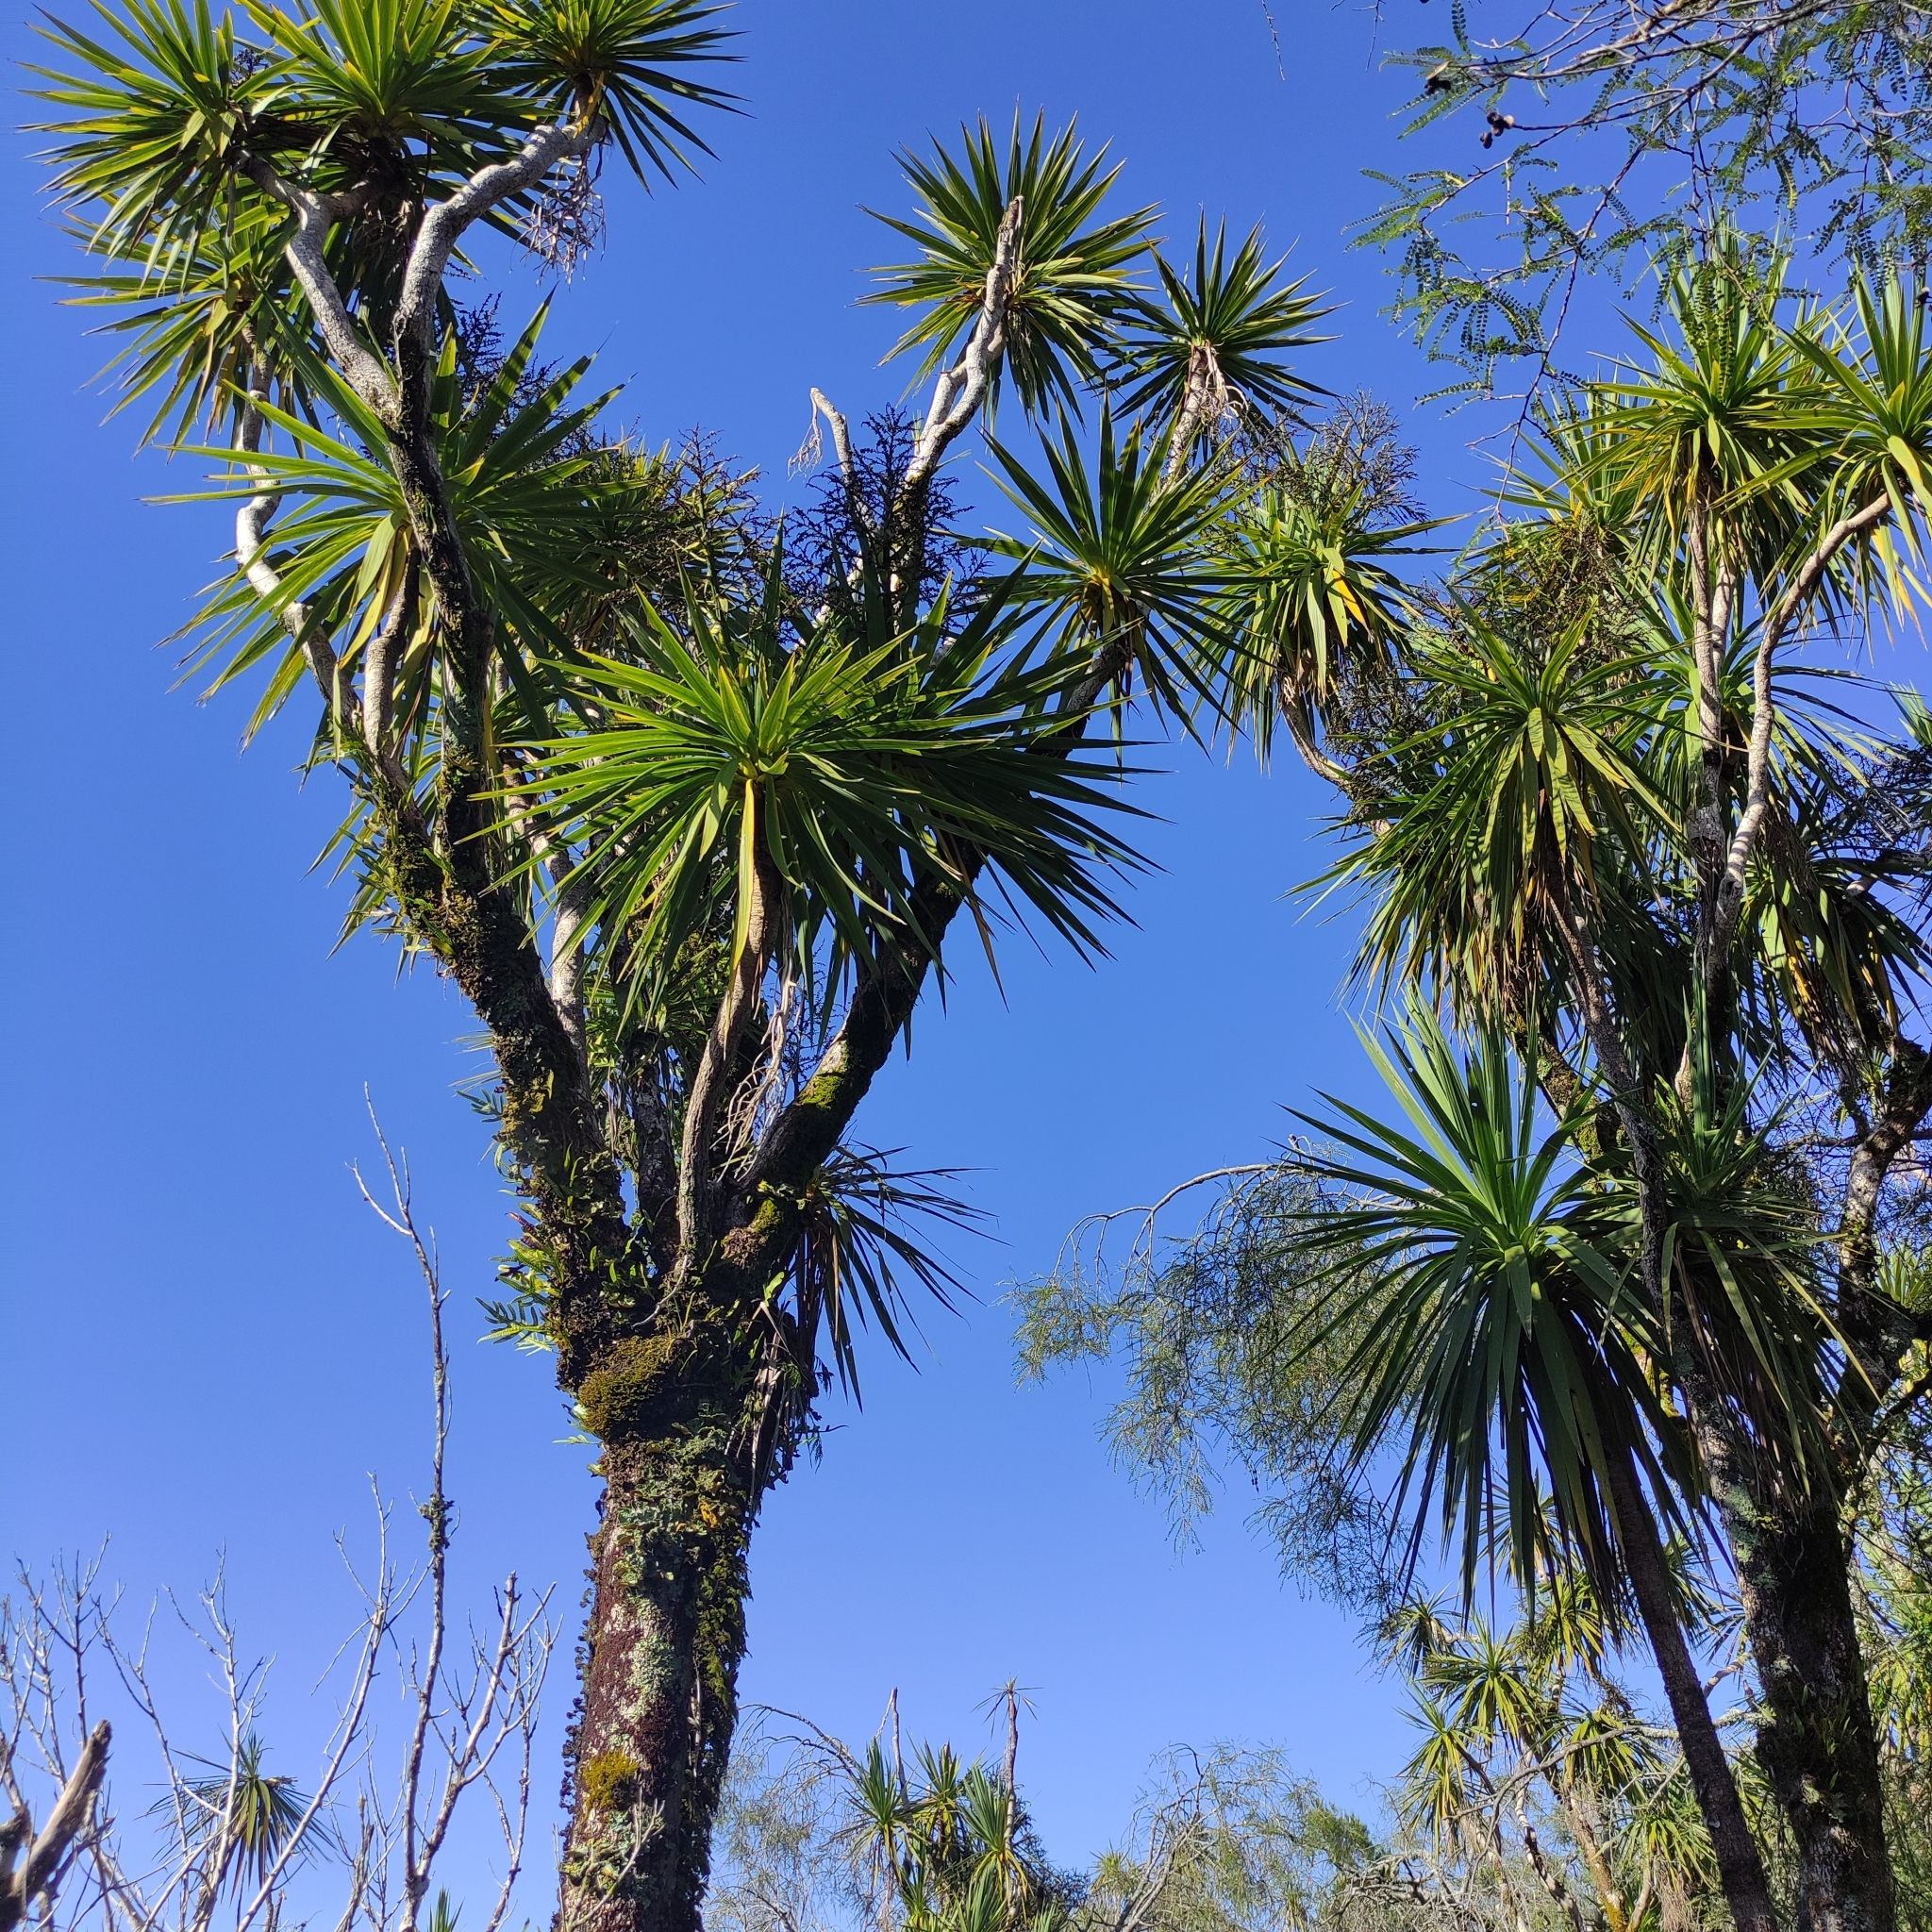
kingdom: Plantae
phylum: Tracheophyta
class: Liliopsida
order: Asparagales
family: Asparagaceae
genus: Cordyline
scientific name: Cordyline australis
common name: Cabbage-palm
